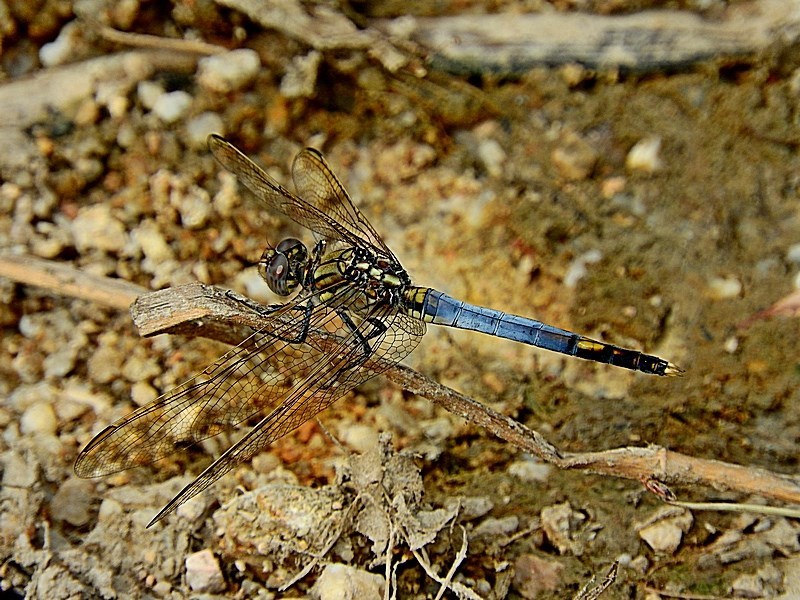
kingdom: Animalia
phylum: Arthropoda
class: Insecta
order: Odonata
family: Libellulidae
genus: Orthetrum
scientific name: Orthetrum caledonicum
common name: Blue skimmer
